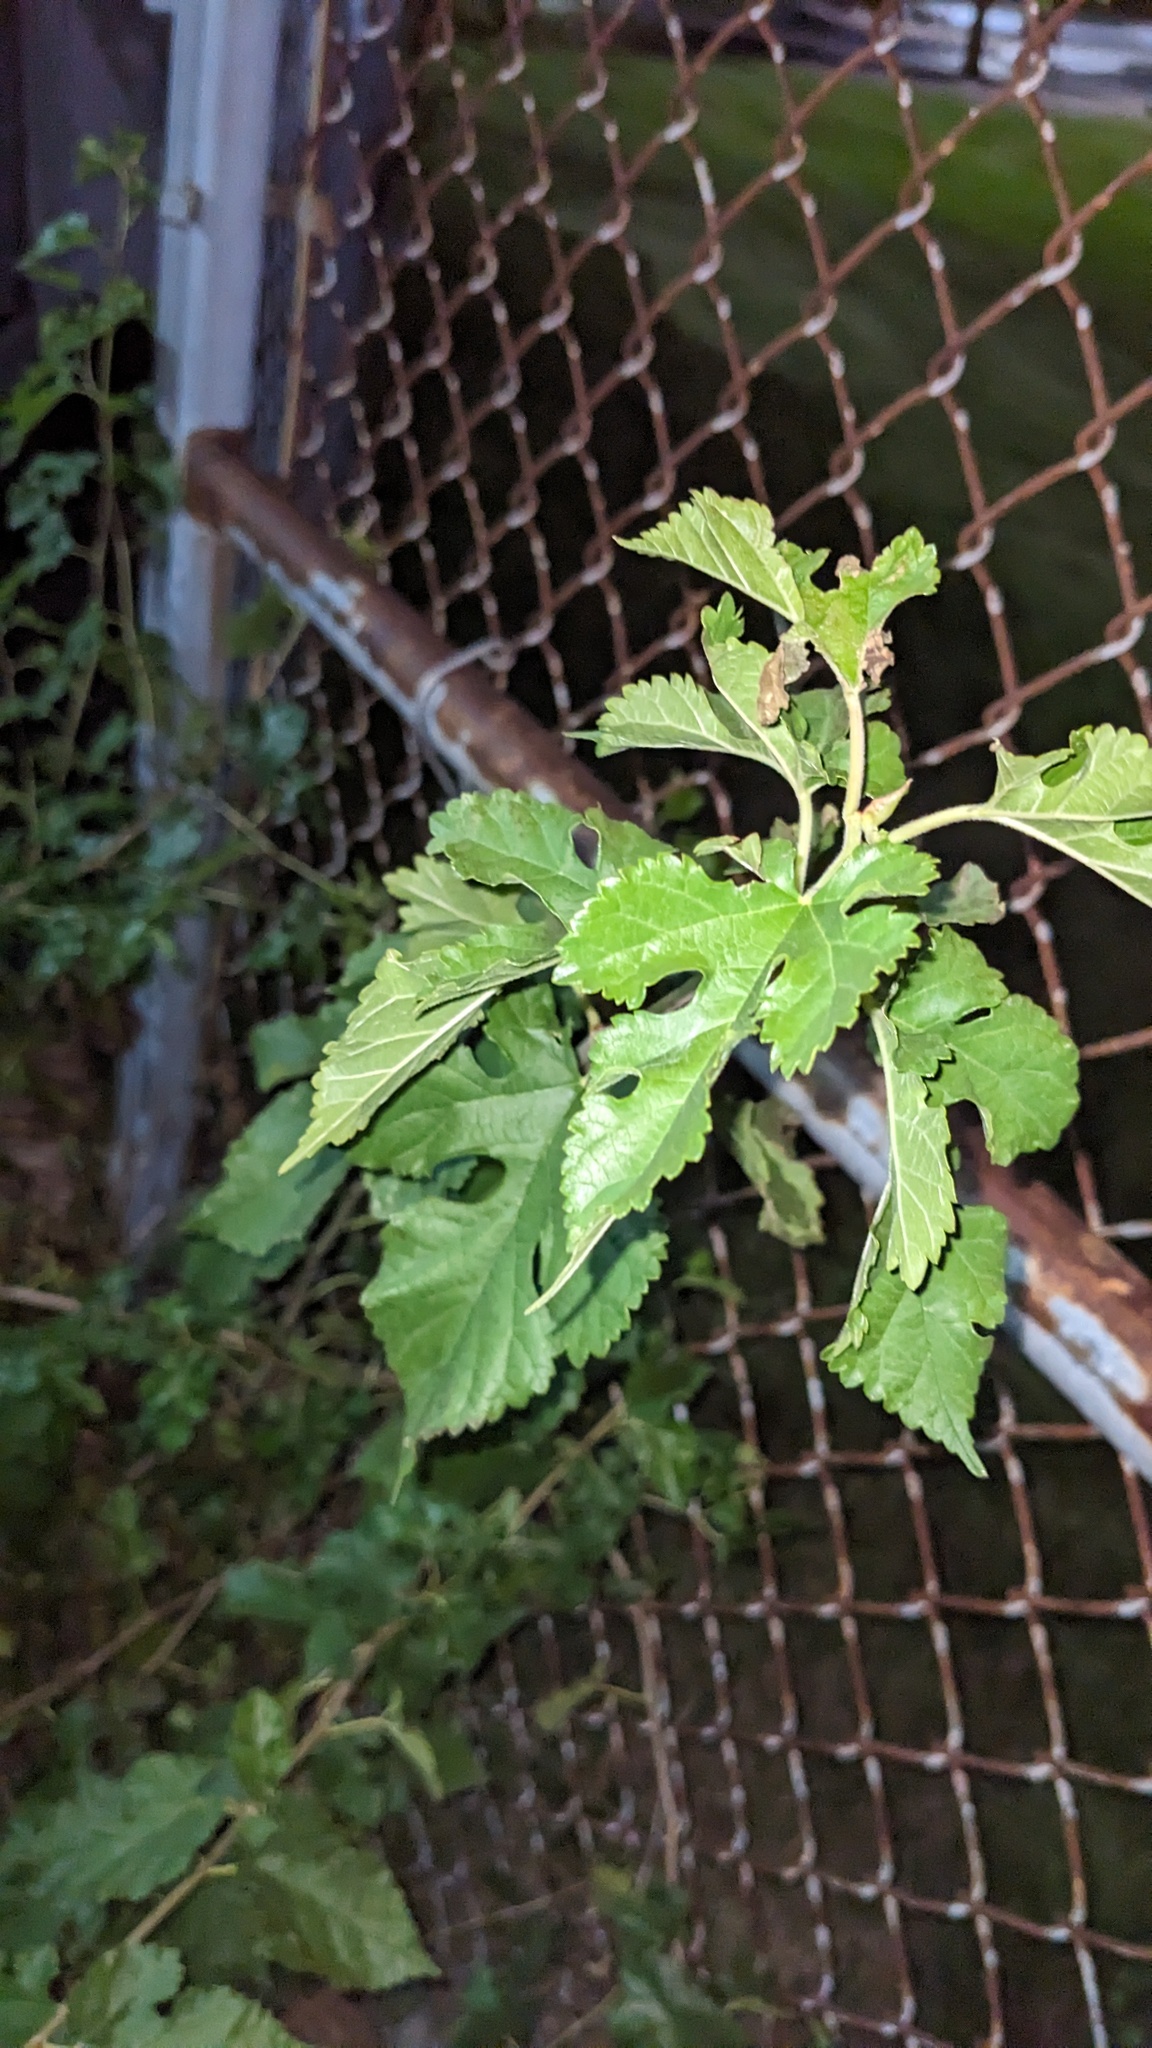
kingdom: Plantae
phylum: Tracheophyta
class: Magnoliopsida
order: Rosales
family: Moraceae
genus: Morus
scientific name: Morus alba
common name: White mulberry
